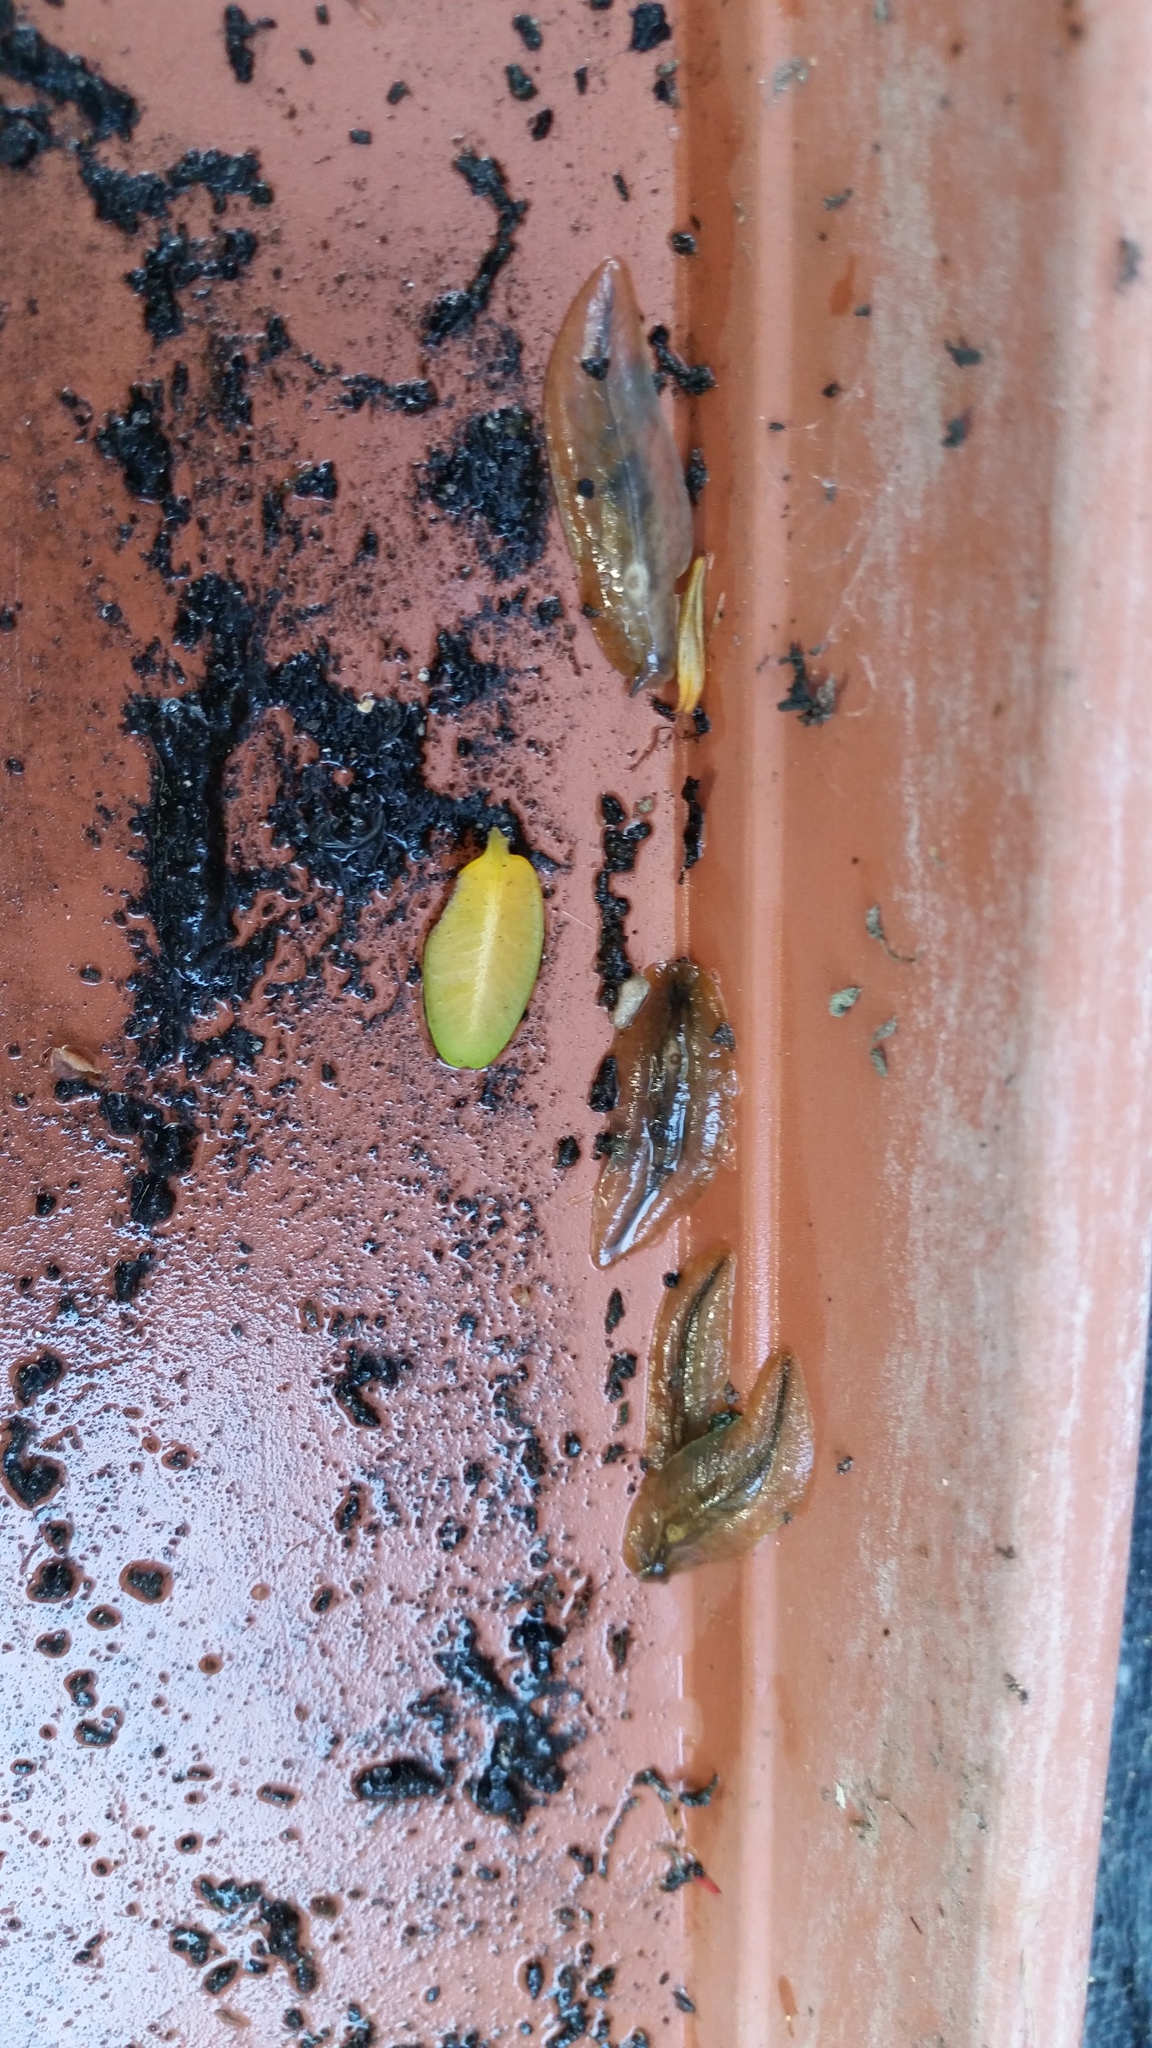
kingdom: Animalia
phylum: Mollusca
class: Gastropoda
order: Stylommatophora
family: Athoracophoridae
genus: Athoracophorus
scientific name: Athoracophorus bitentaculatus
